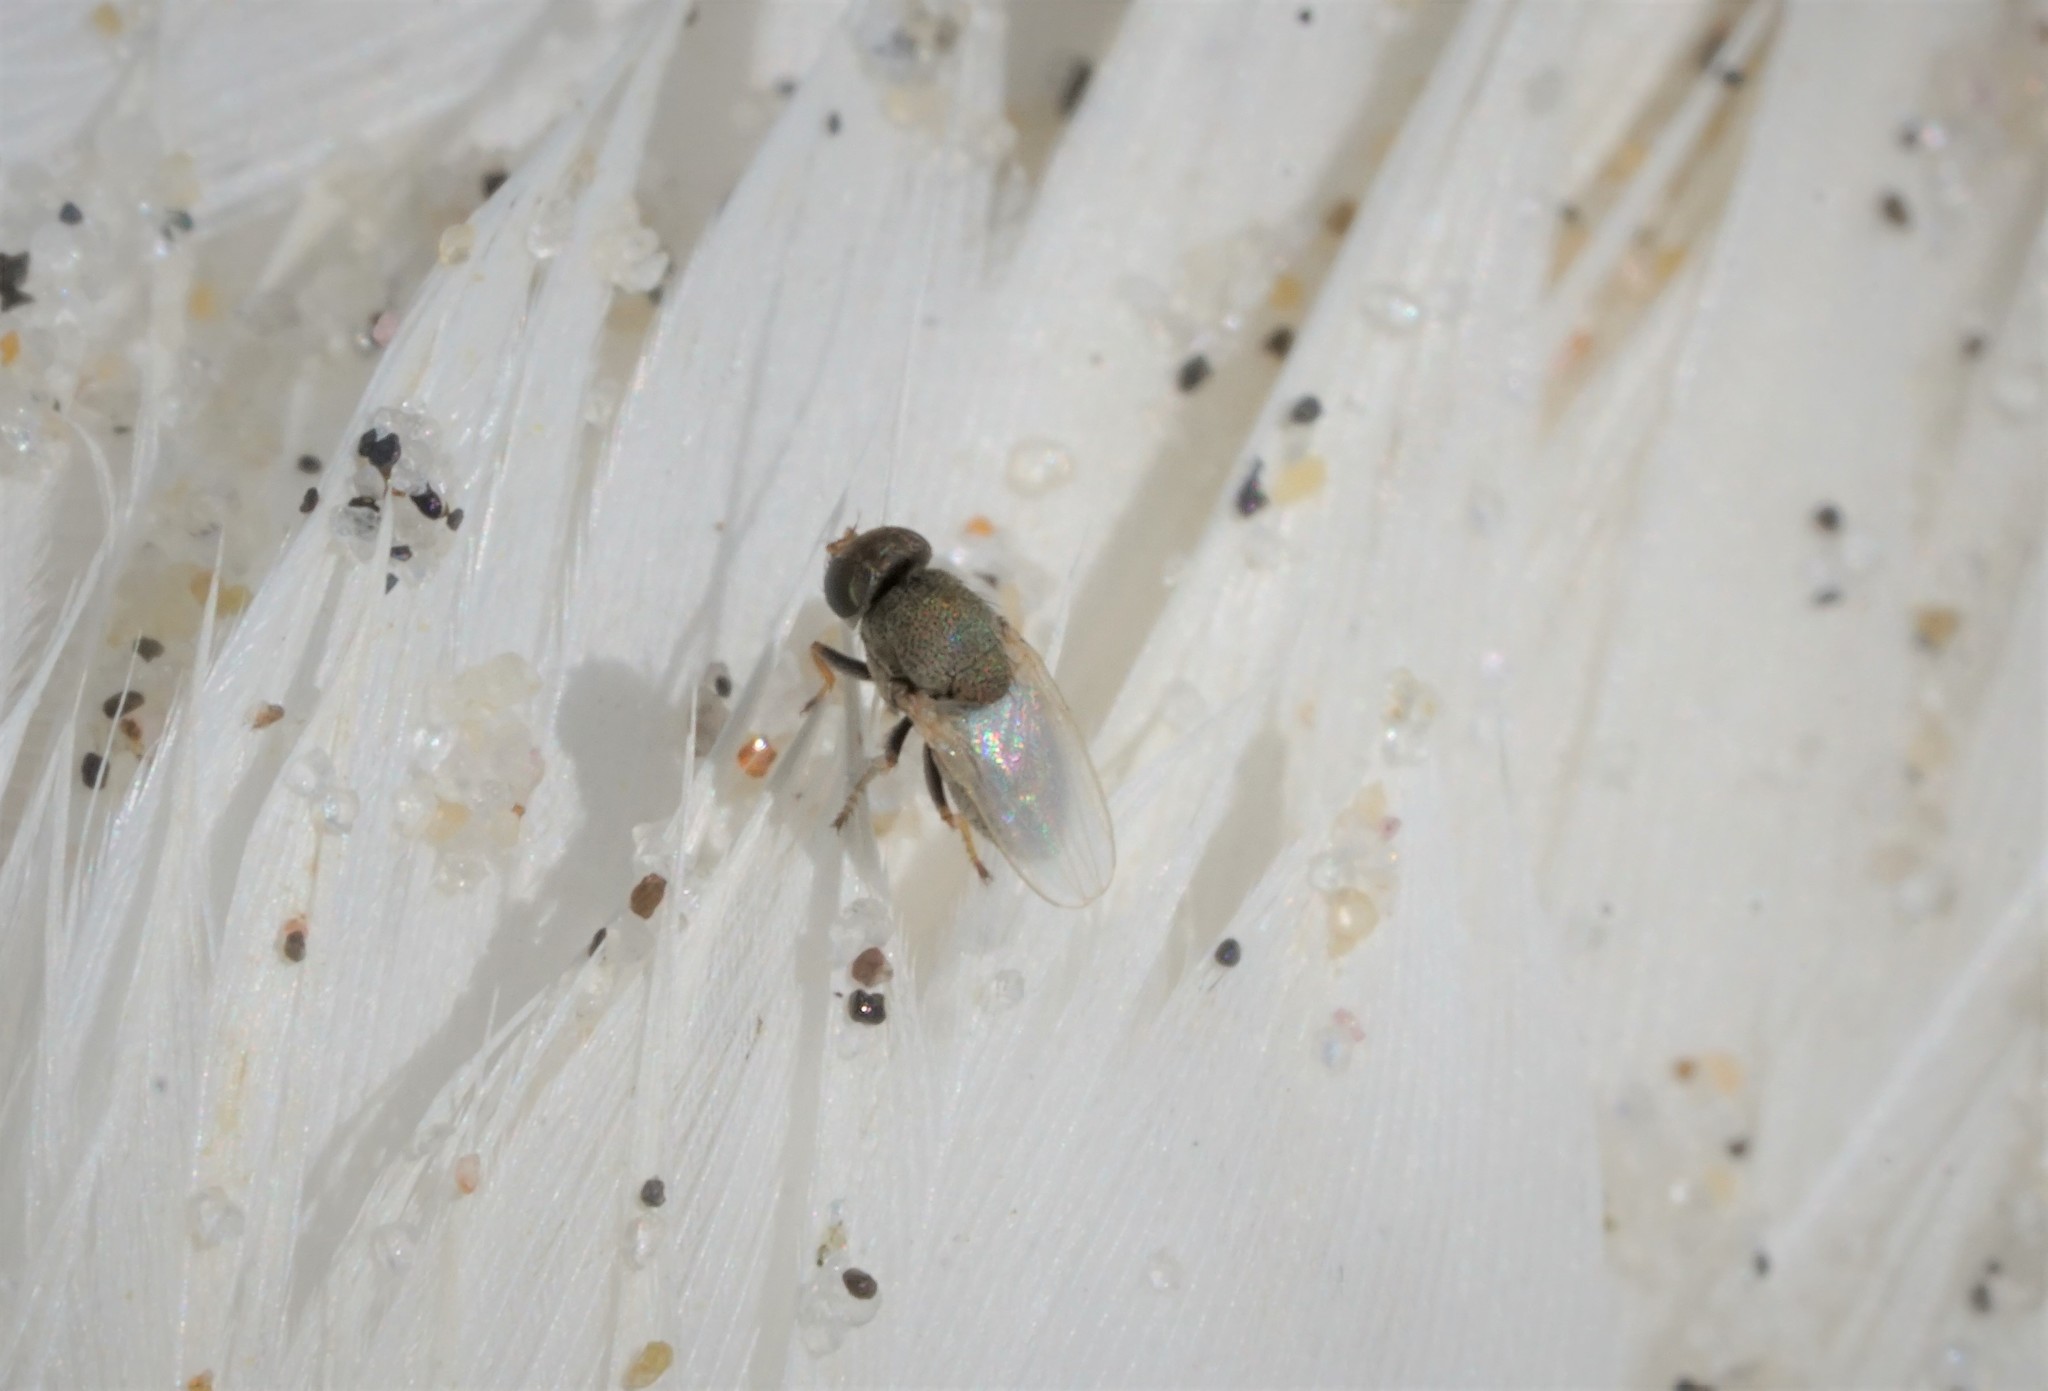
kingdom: Animalia
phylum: Arthropoda
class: Insecta
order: Diptera
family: Ephydridae
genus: Hecamede
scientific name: Hecamede albicans
